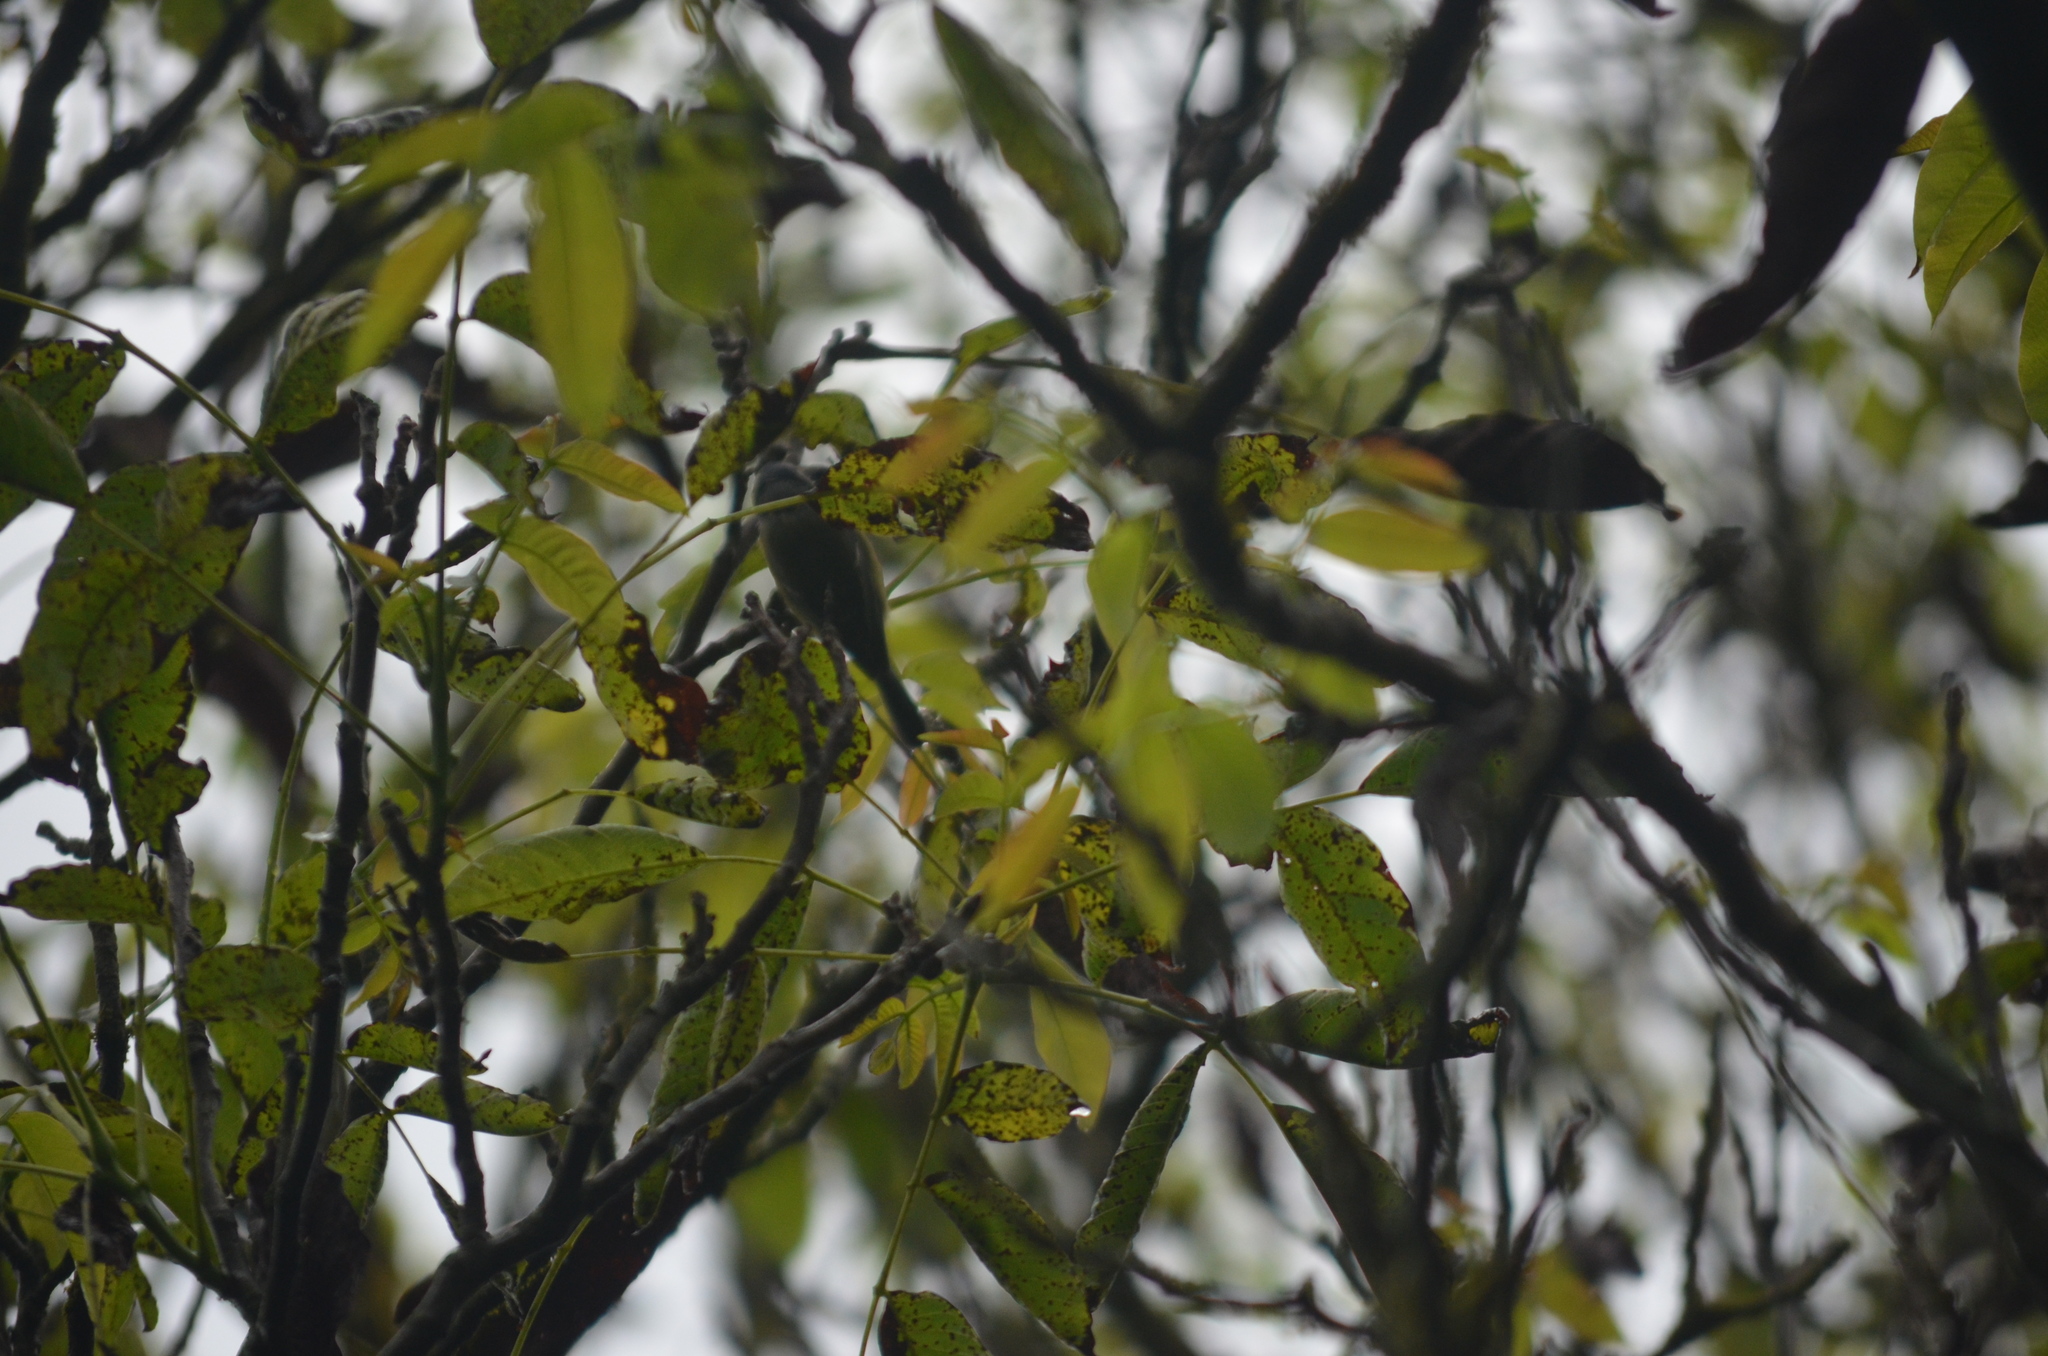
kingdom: Animalia
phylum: Chordata
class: Aves
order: Passeriformes
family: Paridae
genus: Cyanistes
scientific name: Cyanistes caeruleus
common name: Eurasian blue tit
